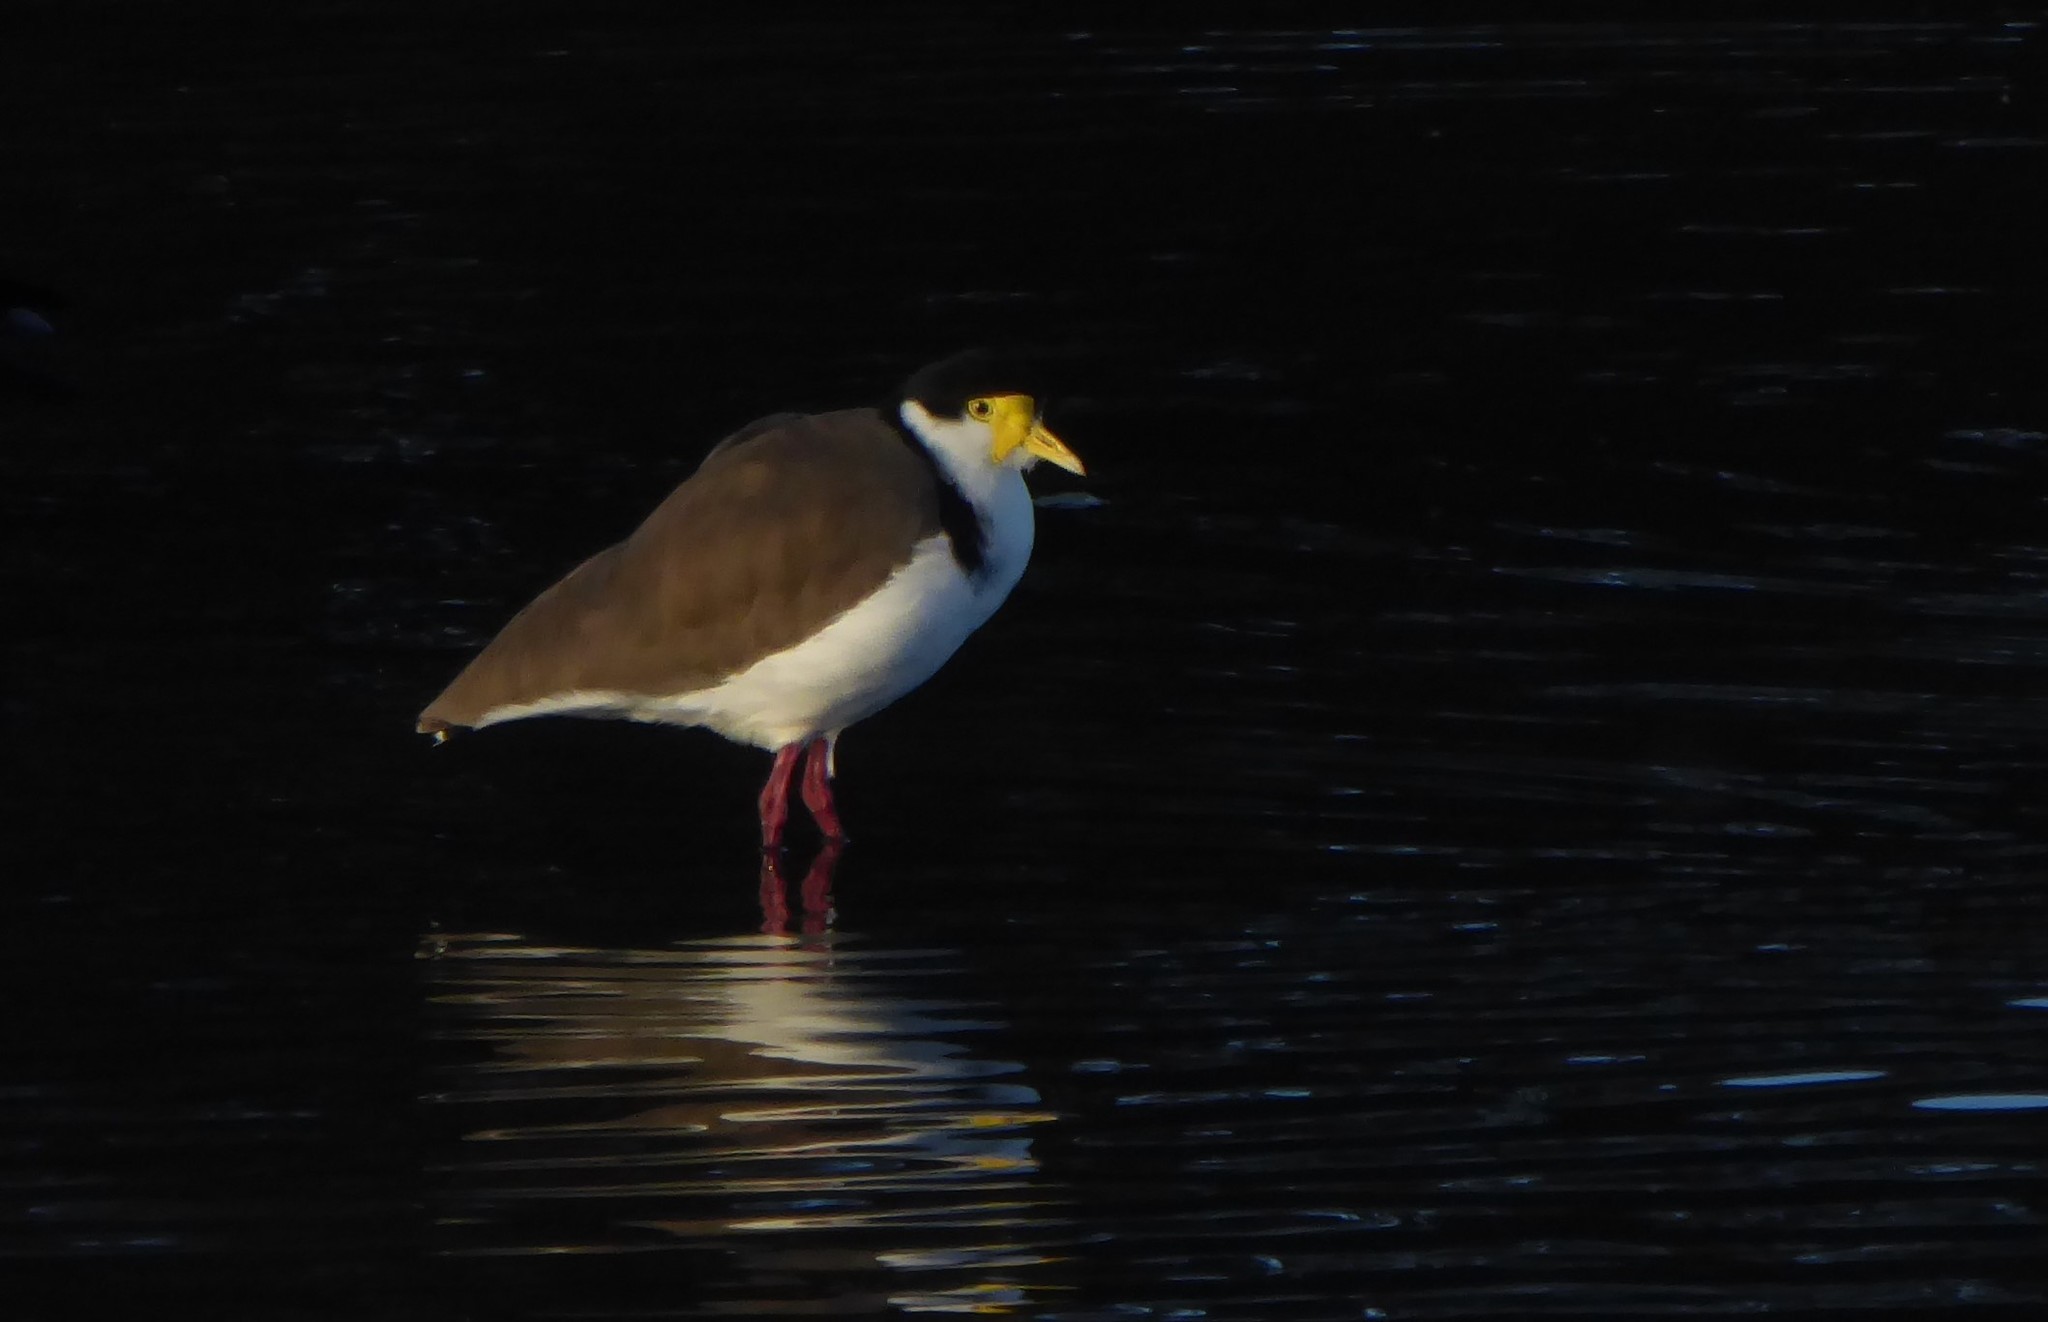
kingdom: Animalia
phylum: Chordata
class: Aves
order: Charadriiformes
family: Charadriidae
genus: Vanellus
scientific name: Vanellus miles
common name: Masked lapwing
